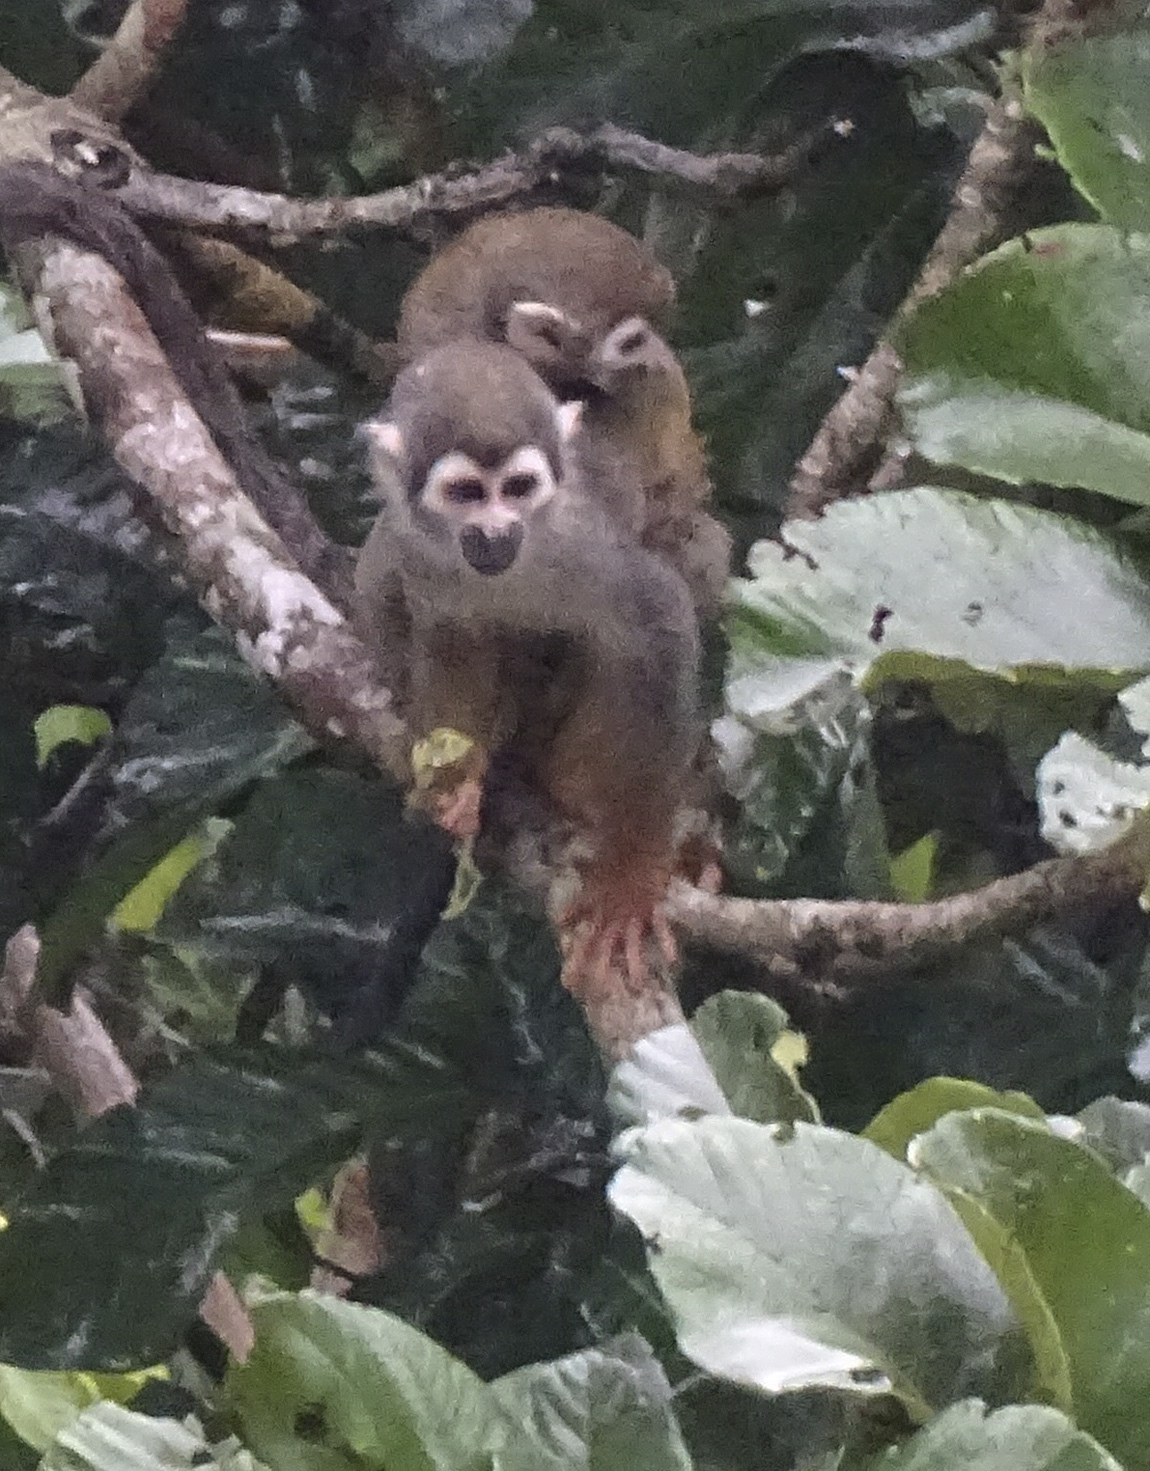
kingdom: Animalia
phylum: Chordata
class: Mammalia
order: Primates
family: Cebidae
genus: Saimiri
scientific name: Saimiri cassiquiarensis
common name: Humboldt’s squirrel monkey
